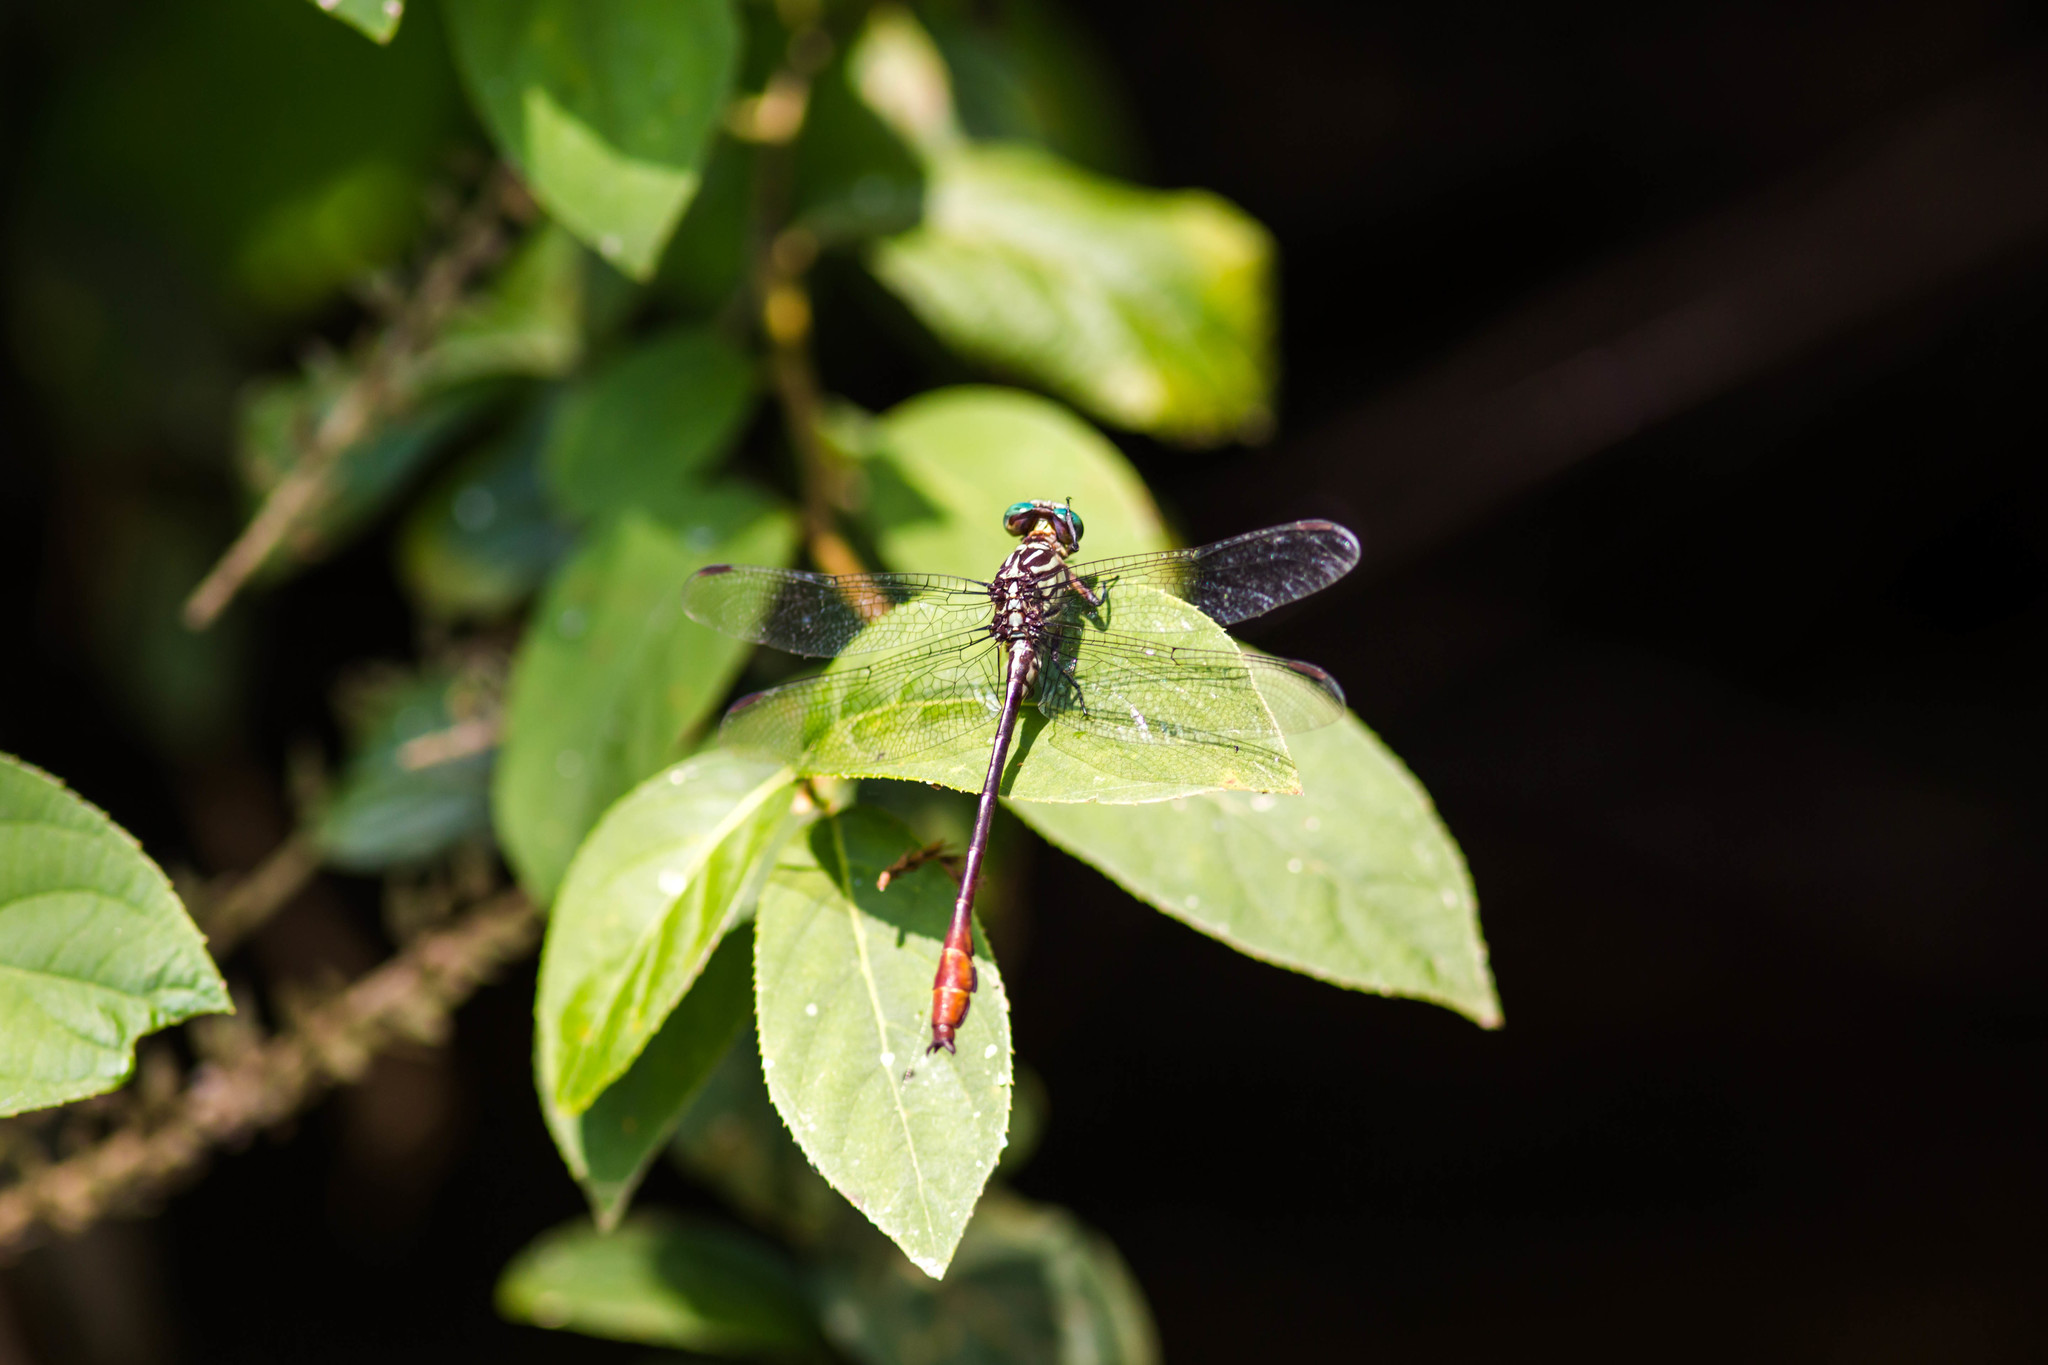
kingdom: Animalia
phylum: Arthropoda
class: Insecta
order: Odonata
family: Gomphidae
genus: Stylurus
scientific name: Stylurus plagiatus
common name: Russet-tipped clubtail
